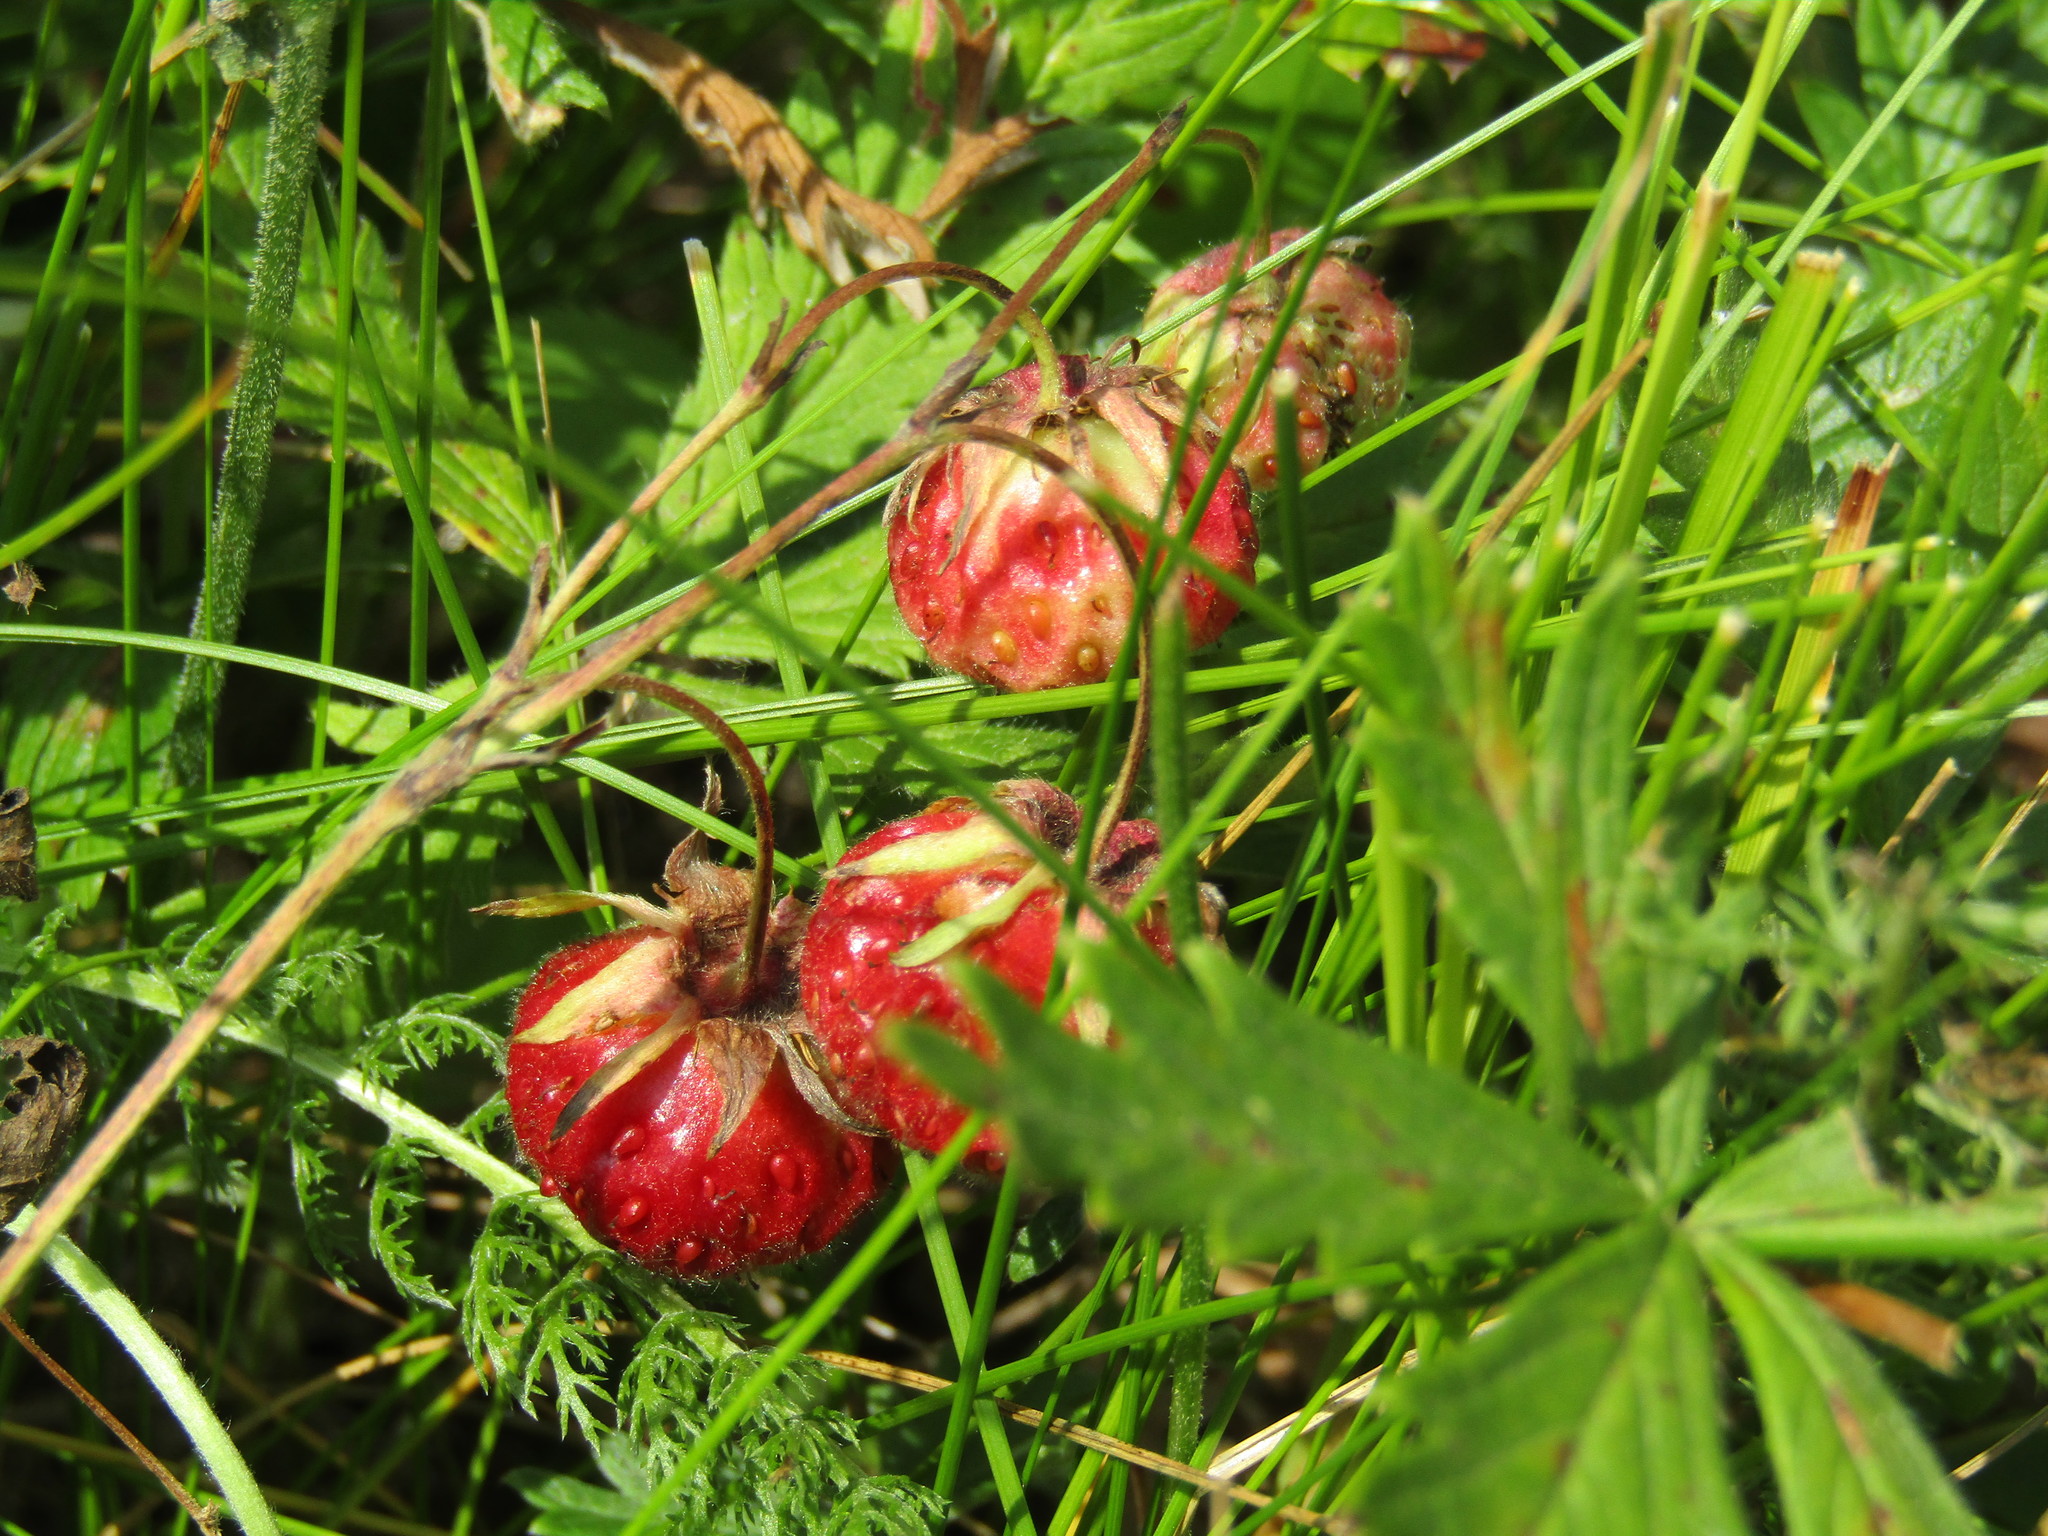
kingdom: Plantae
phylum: Tracheophyta
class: Magnoliopsida
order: Rosales
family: Rosaceae
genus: Fragaria
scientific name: Fragaria viridis
